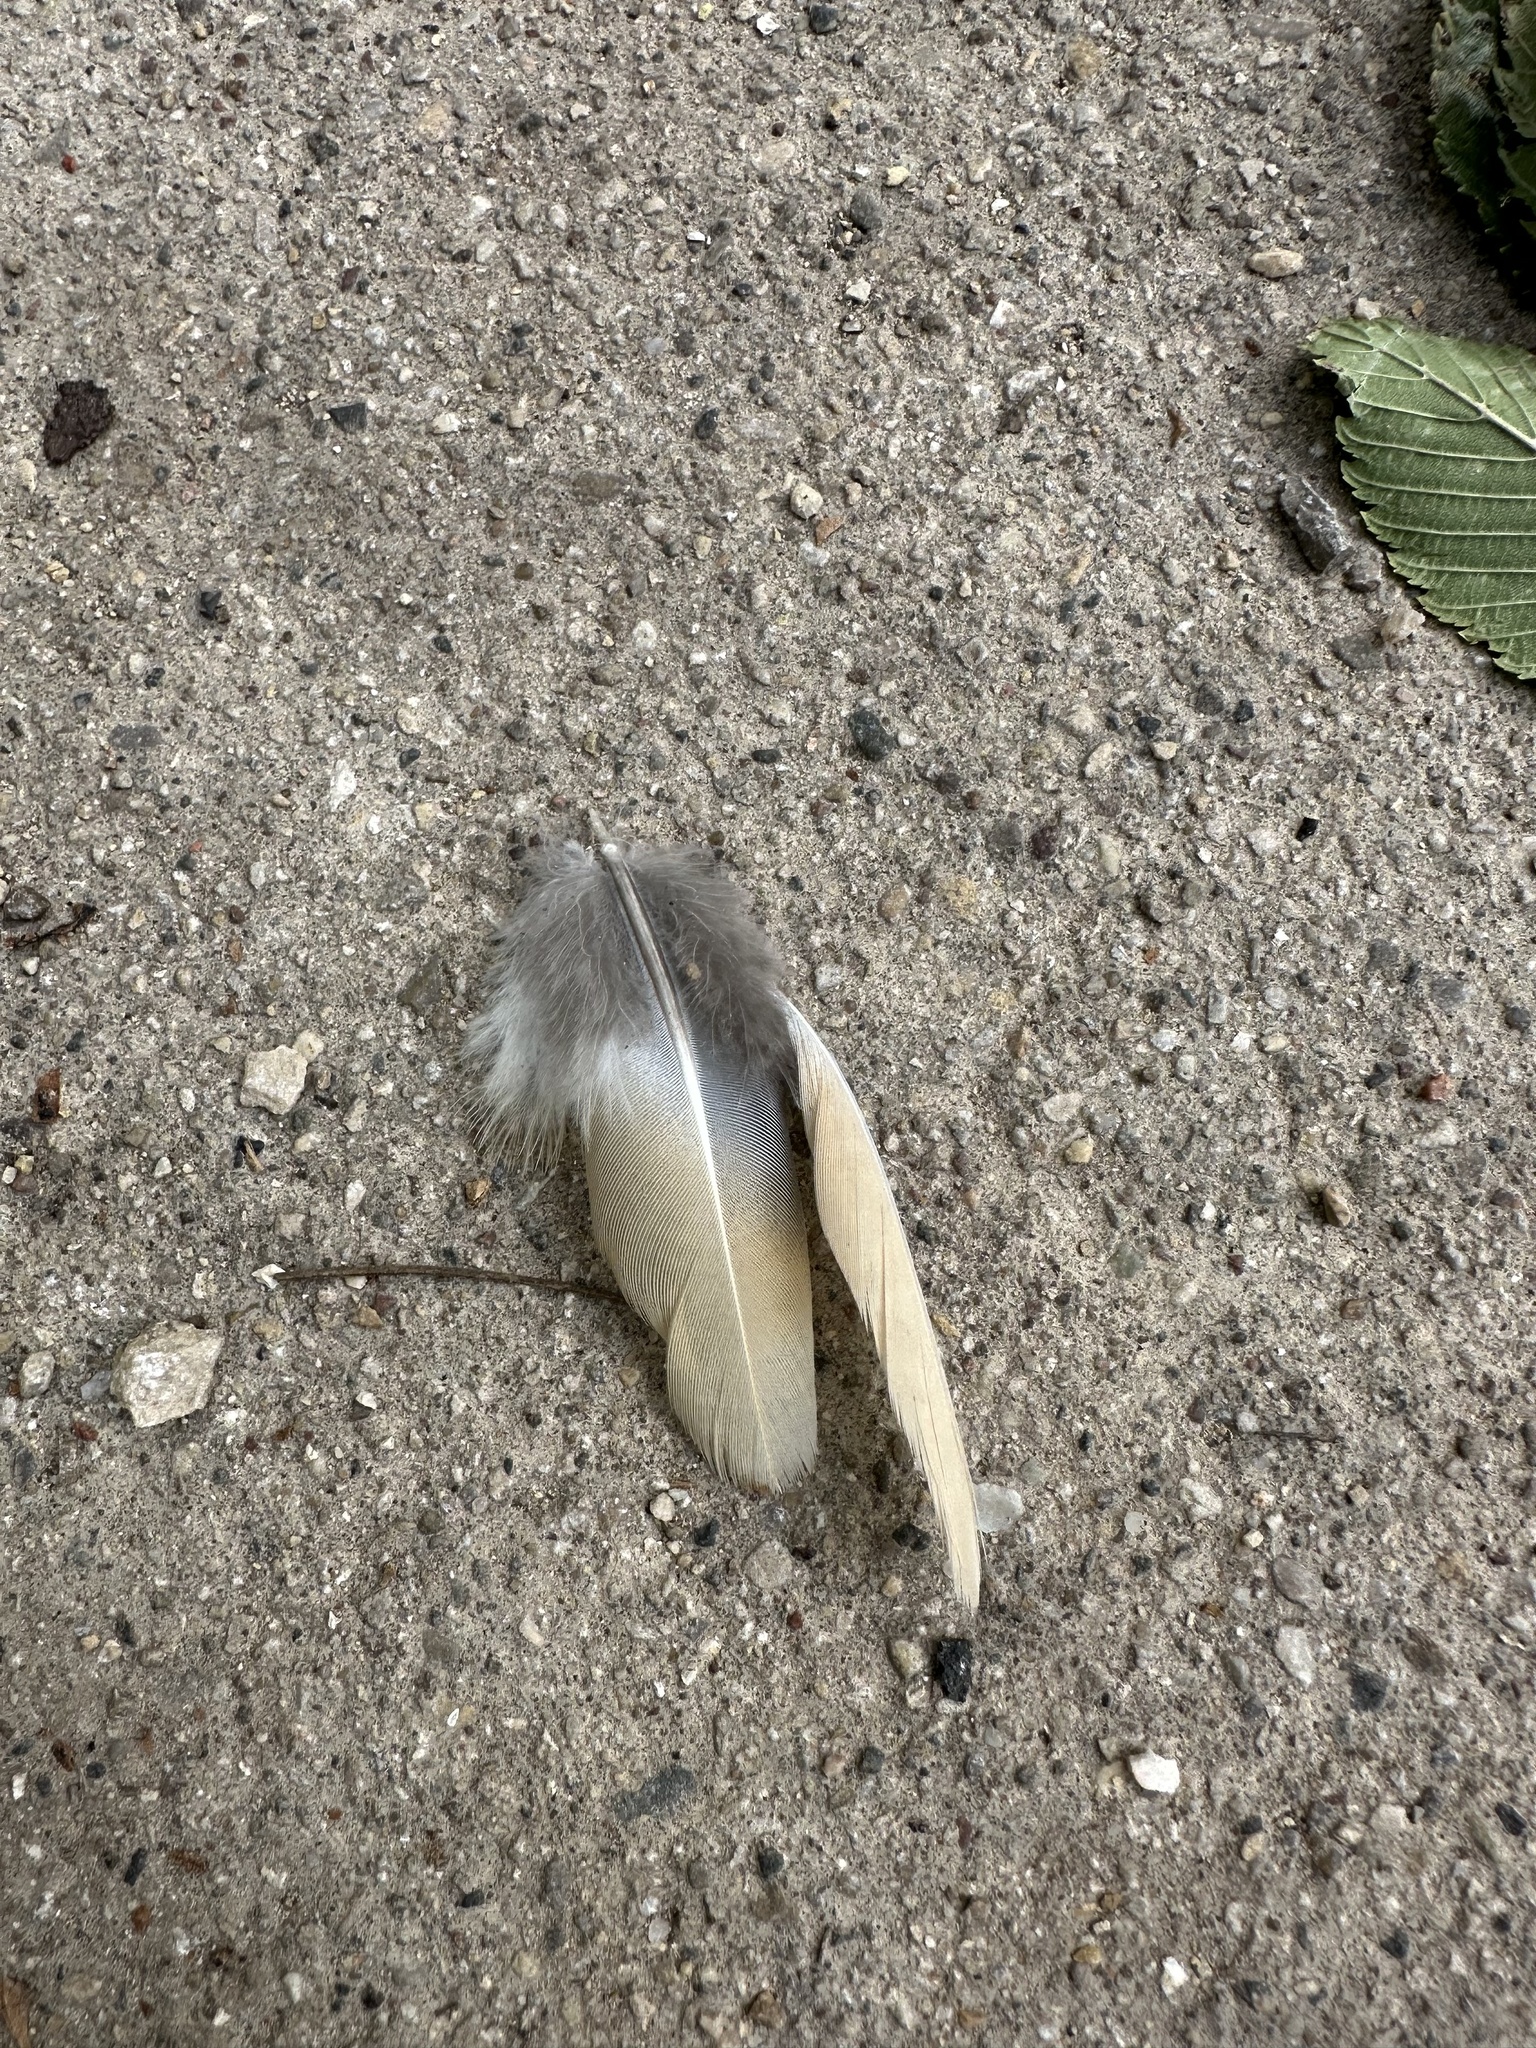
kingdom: Animalia
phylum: Chordata
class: Aves
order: Columbiformes
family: Columbidae
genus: Zenaida
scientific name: Zenaida macroura
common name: Mourning dove
